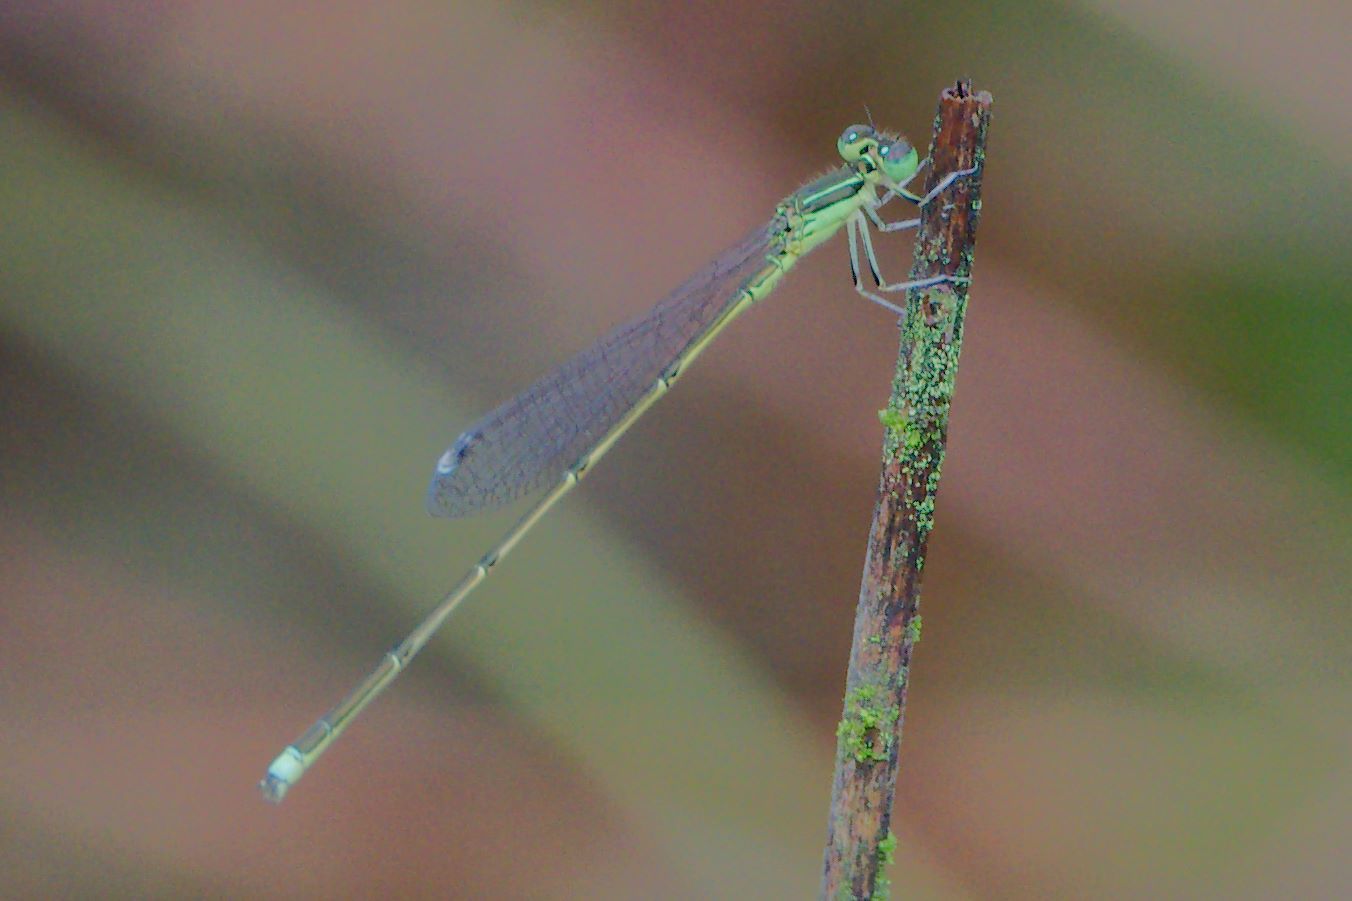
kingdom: Animalia
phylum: Arthropoda
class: Insecta
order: Odonata
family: Coenagrionidae
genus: Ischnura
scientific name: Ischnura prognata
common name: Furtive forktail
